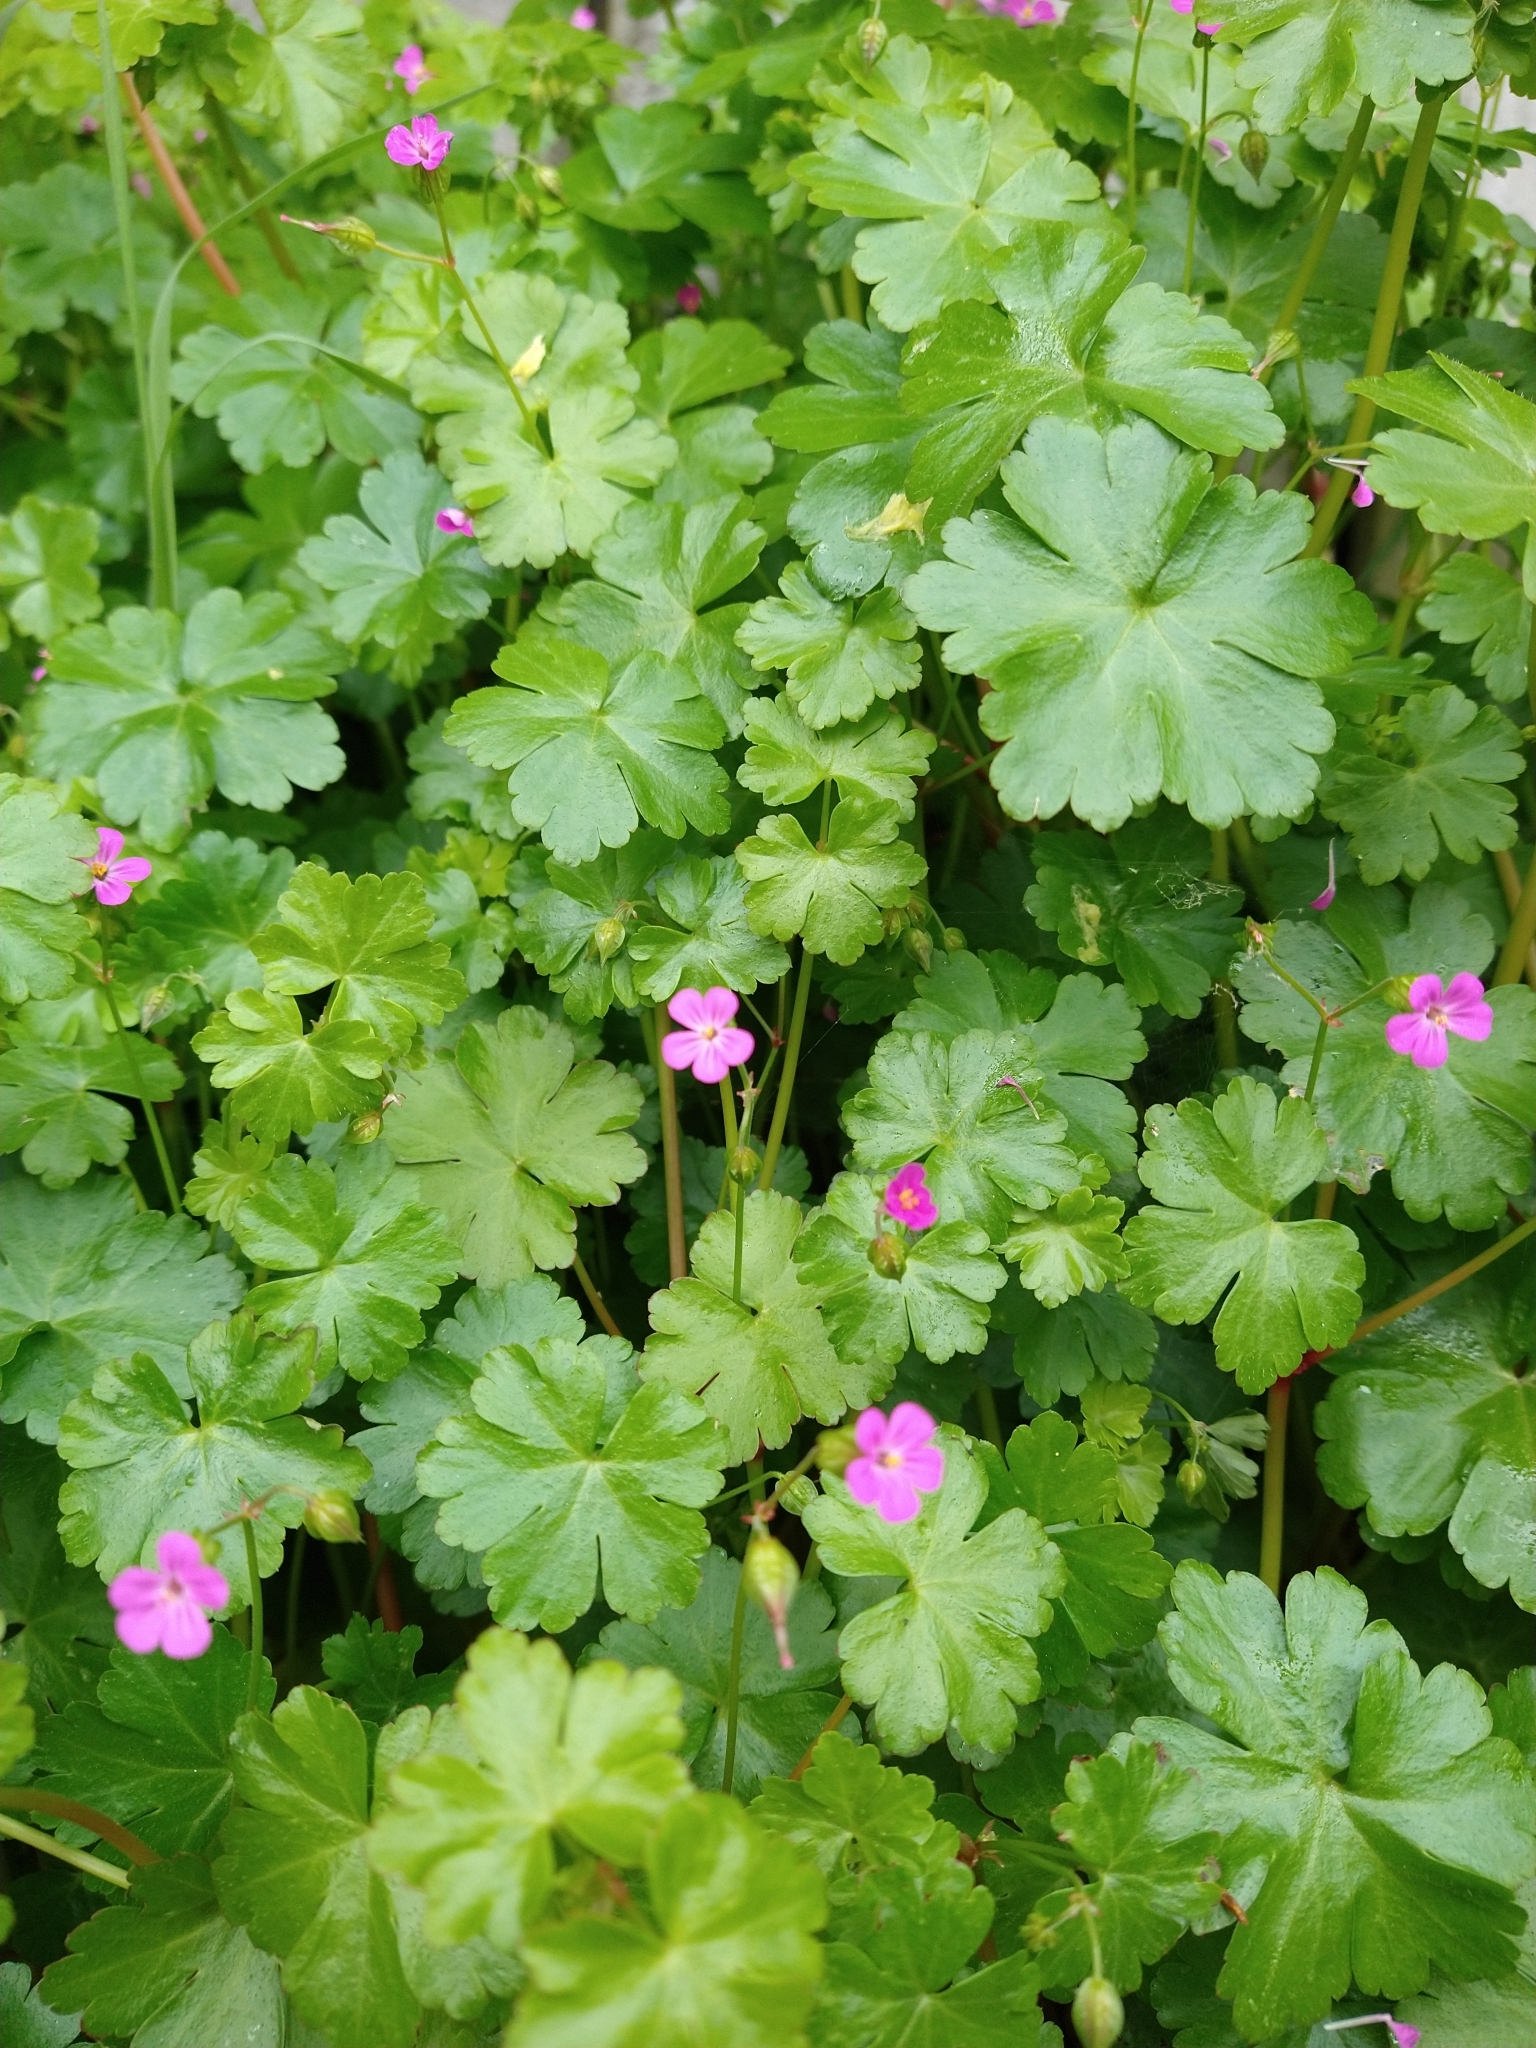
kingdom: Plantae
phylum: Tracheophyta
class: Magnoliopsida
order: Geraniales
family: Geraniaceae
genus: Geranium
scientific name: Geranium lucidum
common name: Shining crane's-bill
